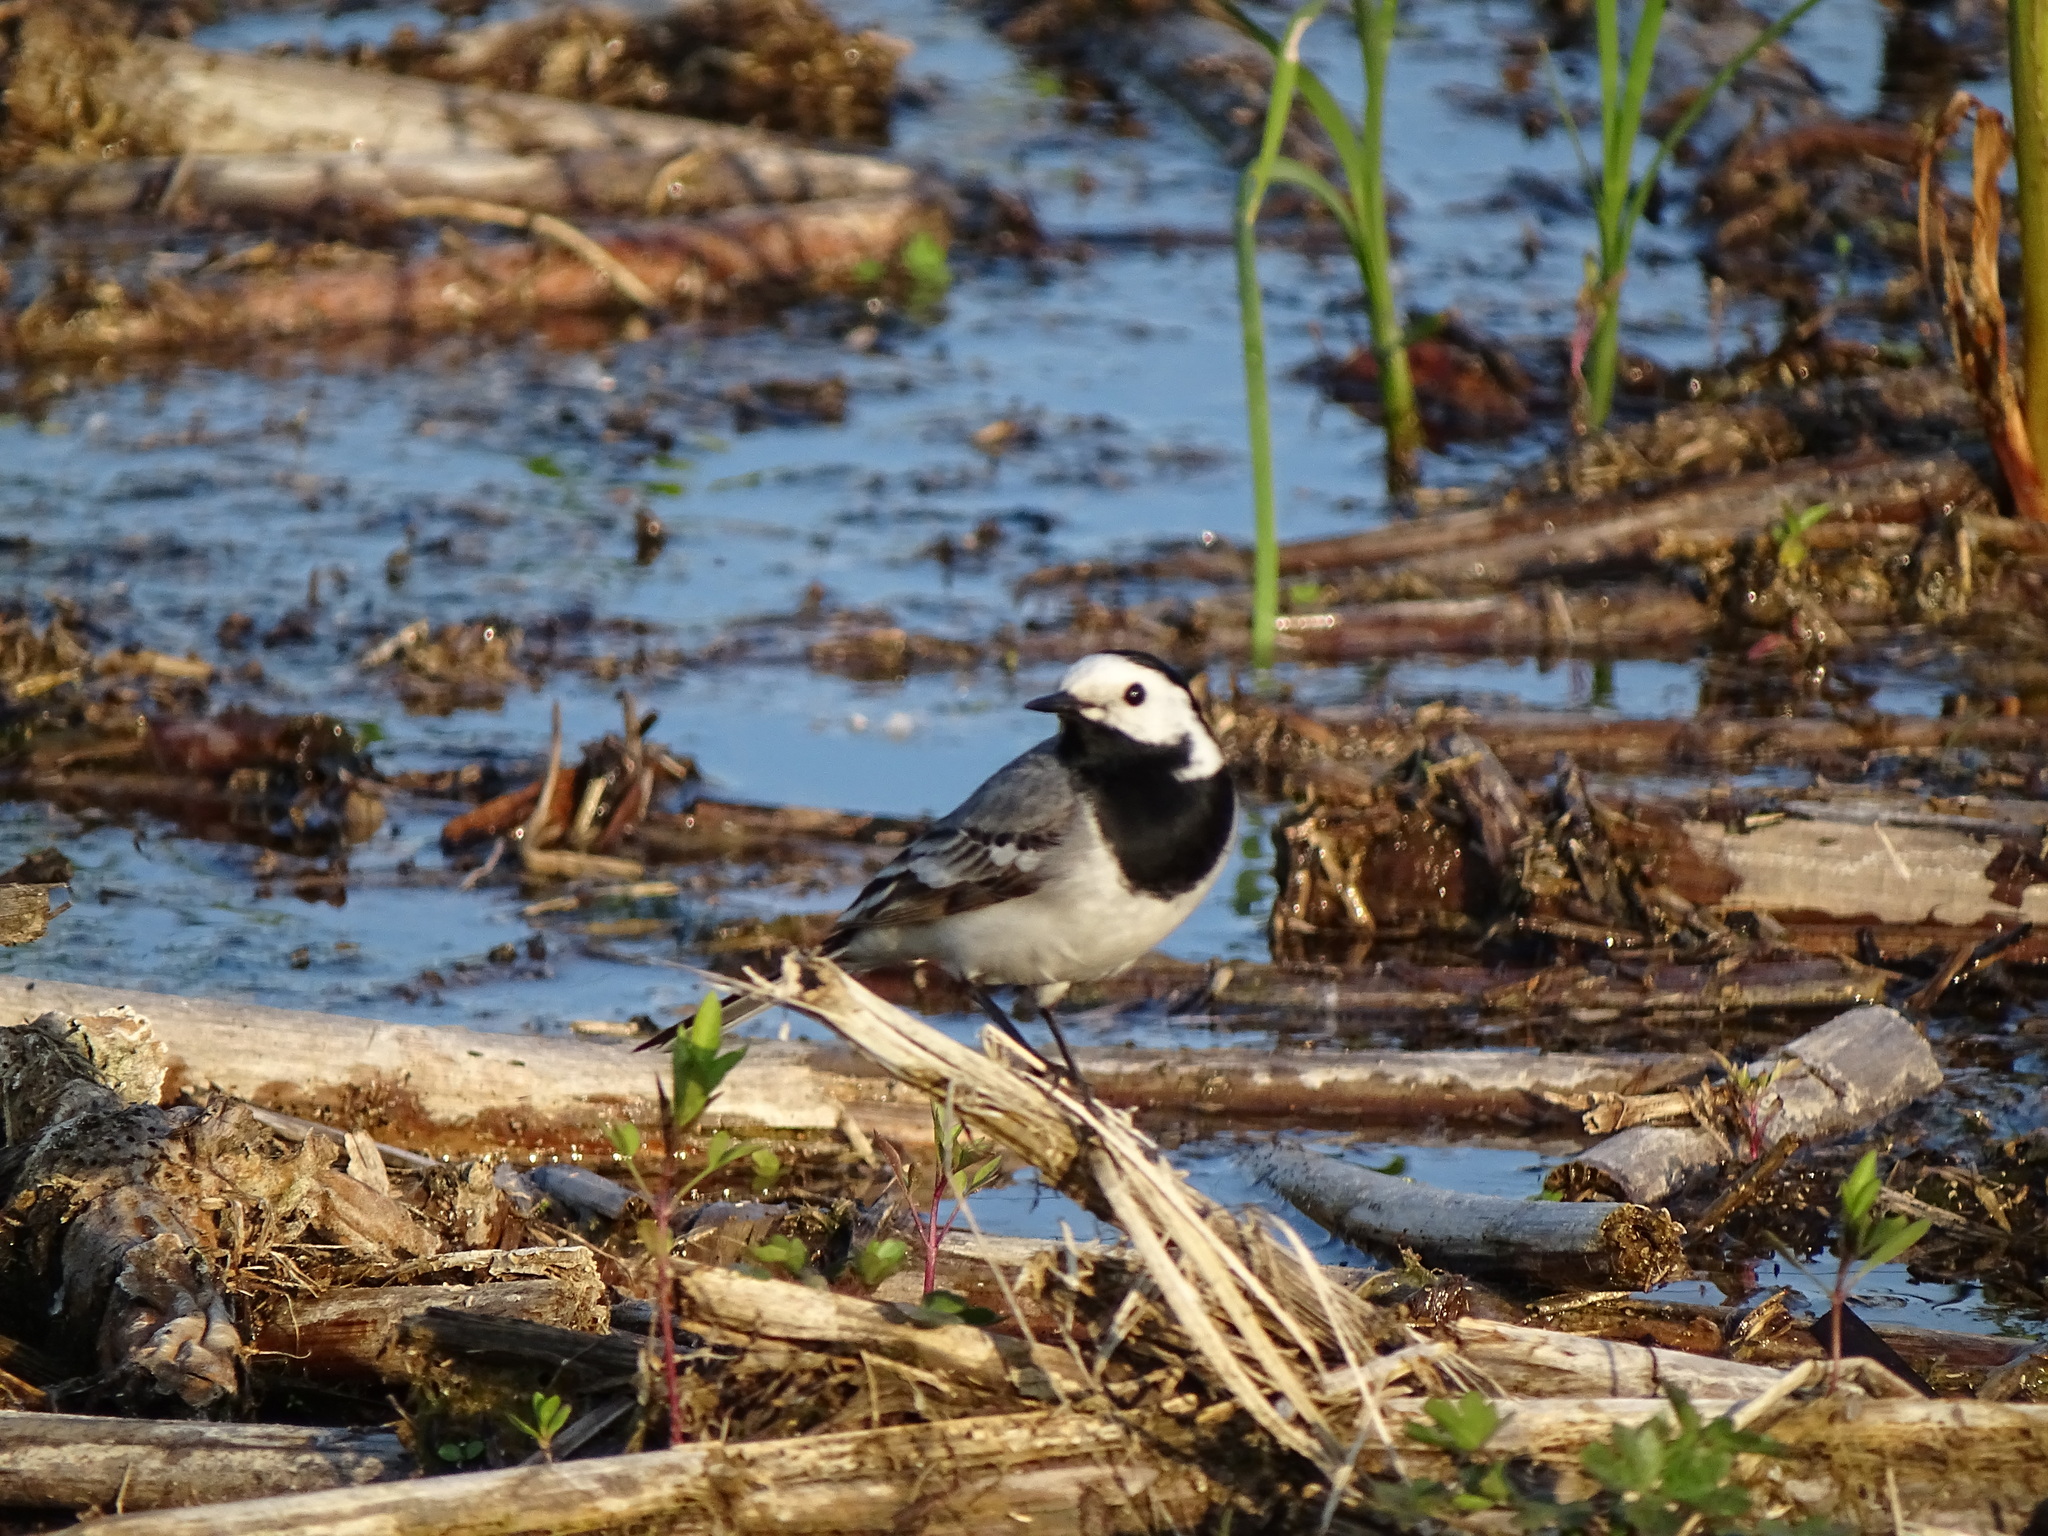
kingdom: Animalia
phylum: Chordata
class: Aves
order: Passeriformes
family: Motacillidae
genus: Motacilla
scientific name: Motacilla alba
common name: White wagtail
